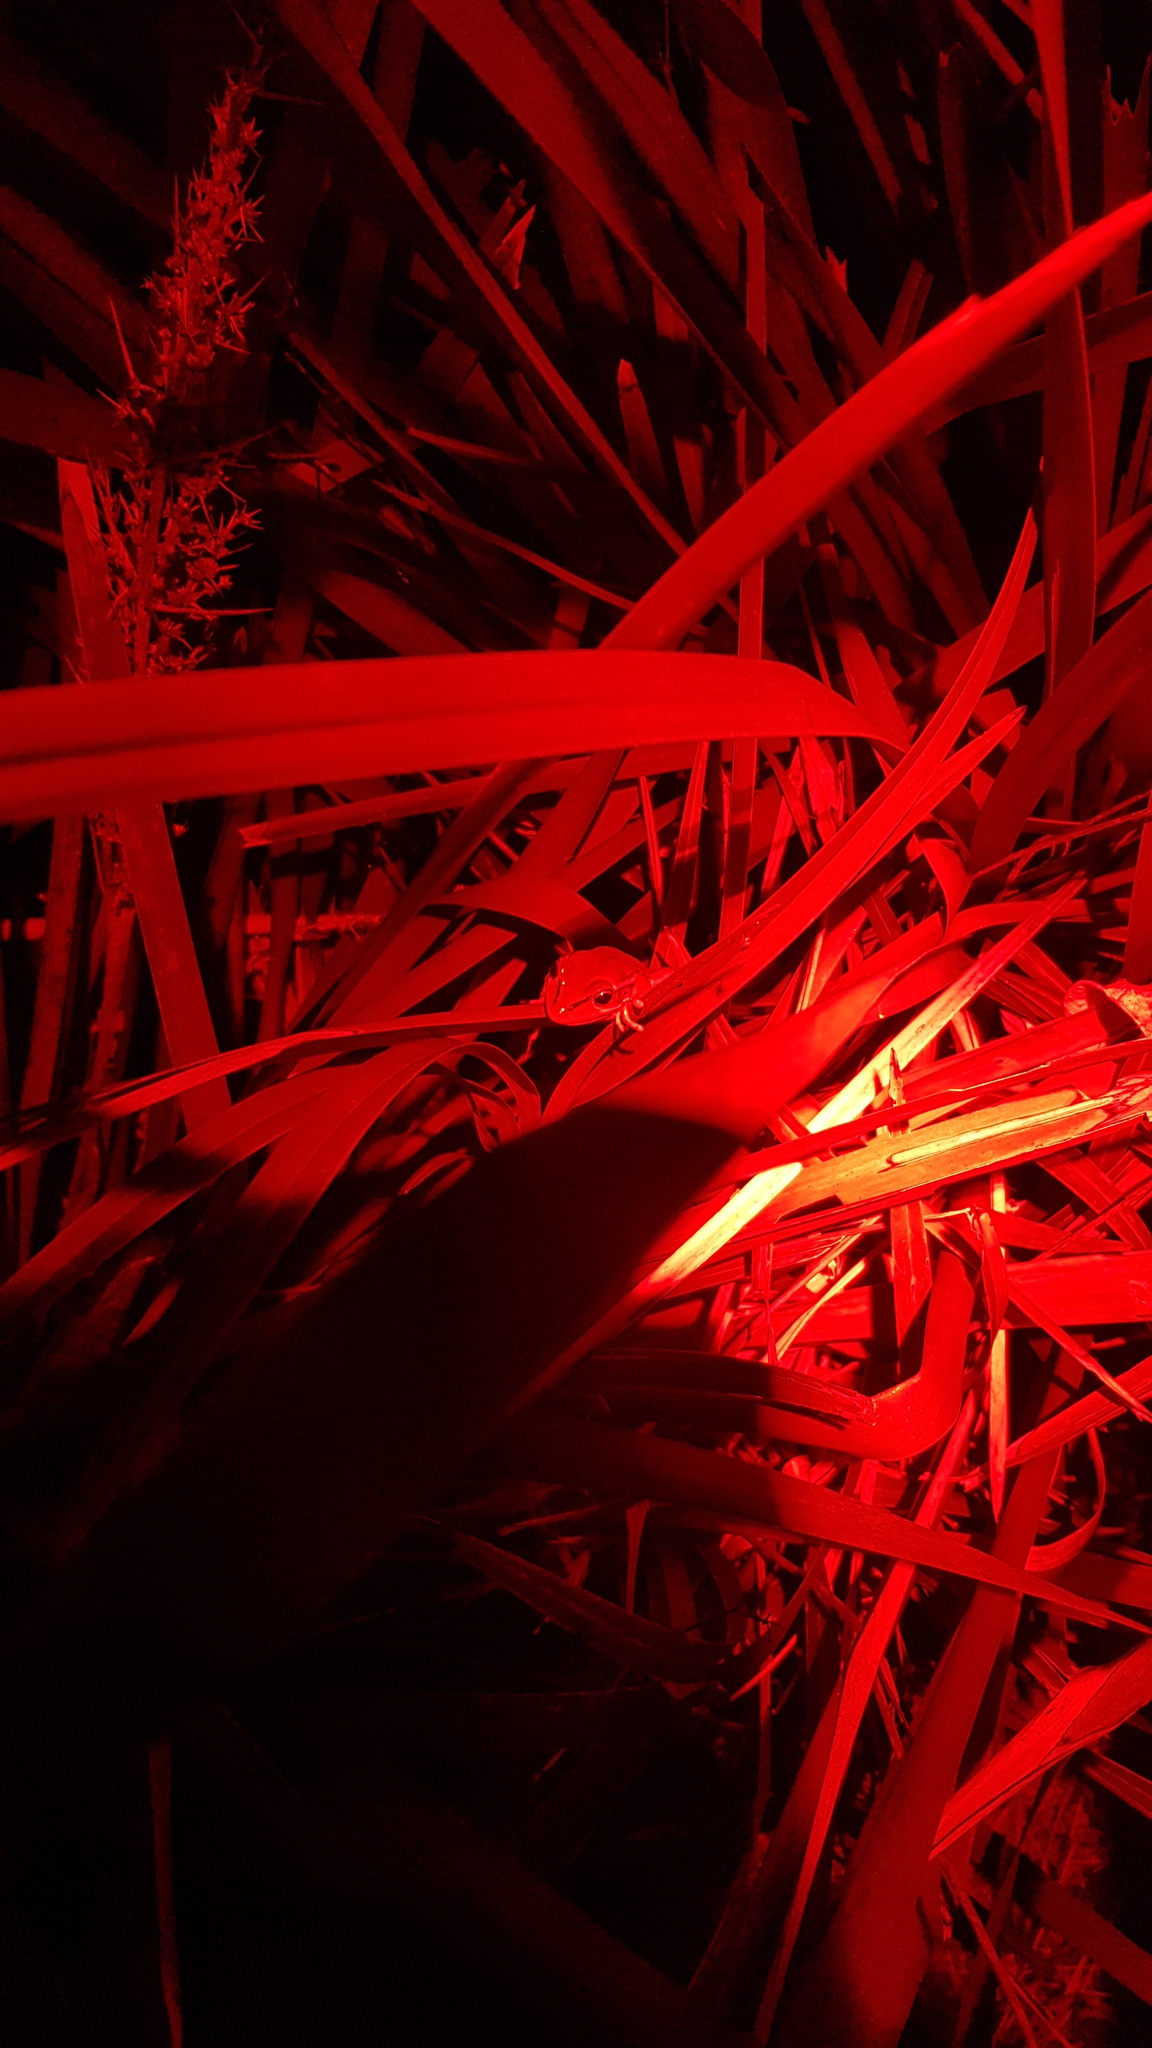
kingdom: Animalia
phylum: Chordata
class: Amphibia
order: Anura
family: Pelodryadidae
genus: Ranoidea
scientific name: Ranoidea aurea
